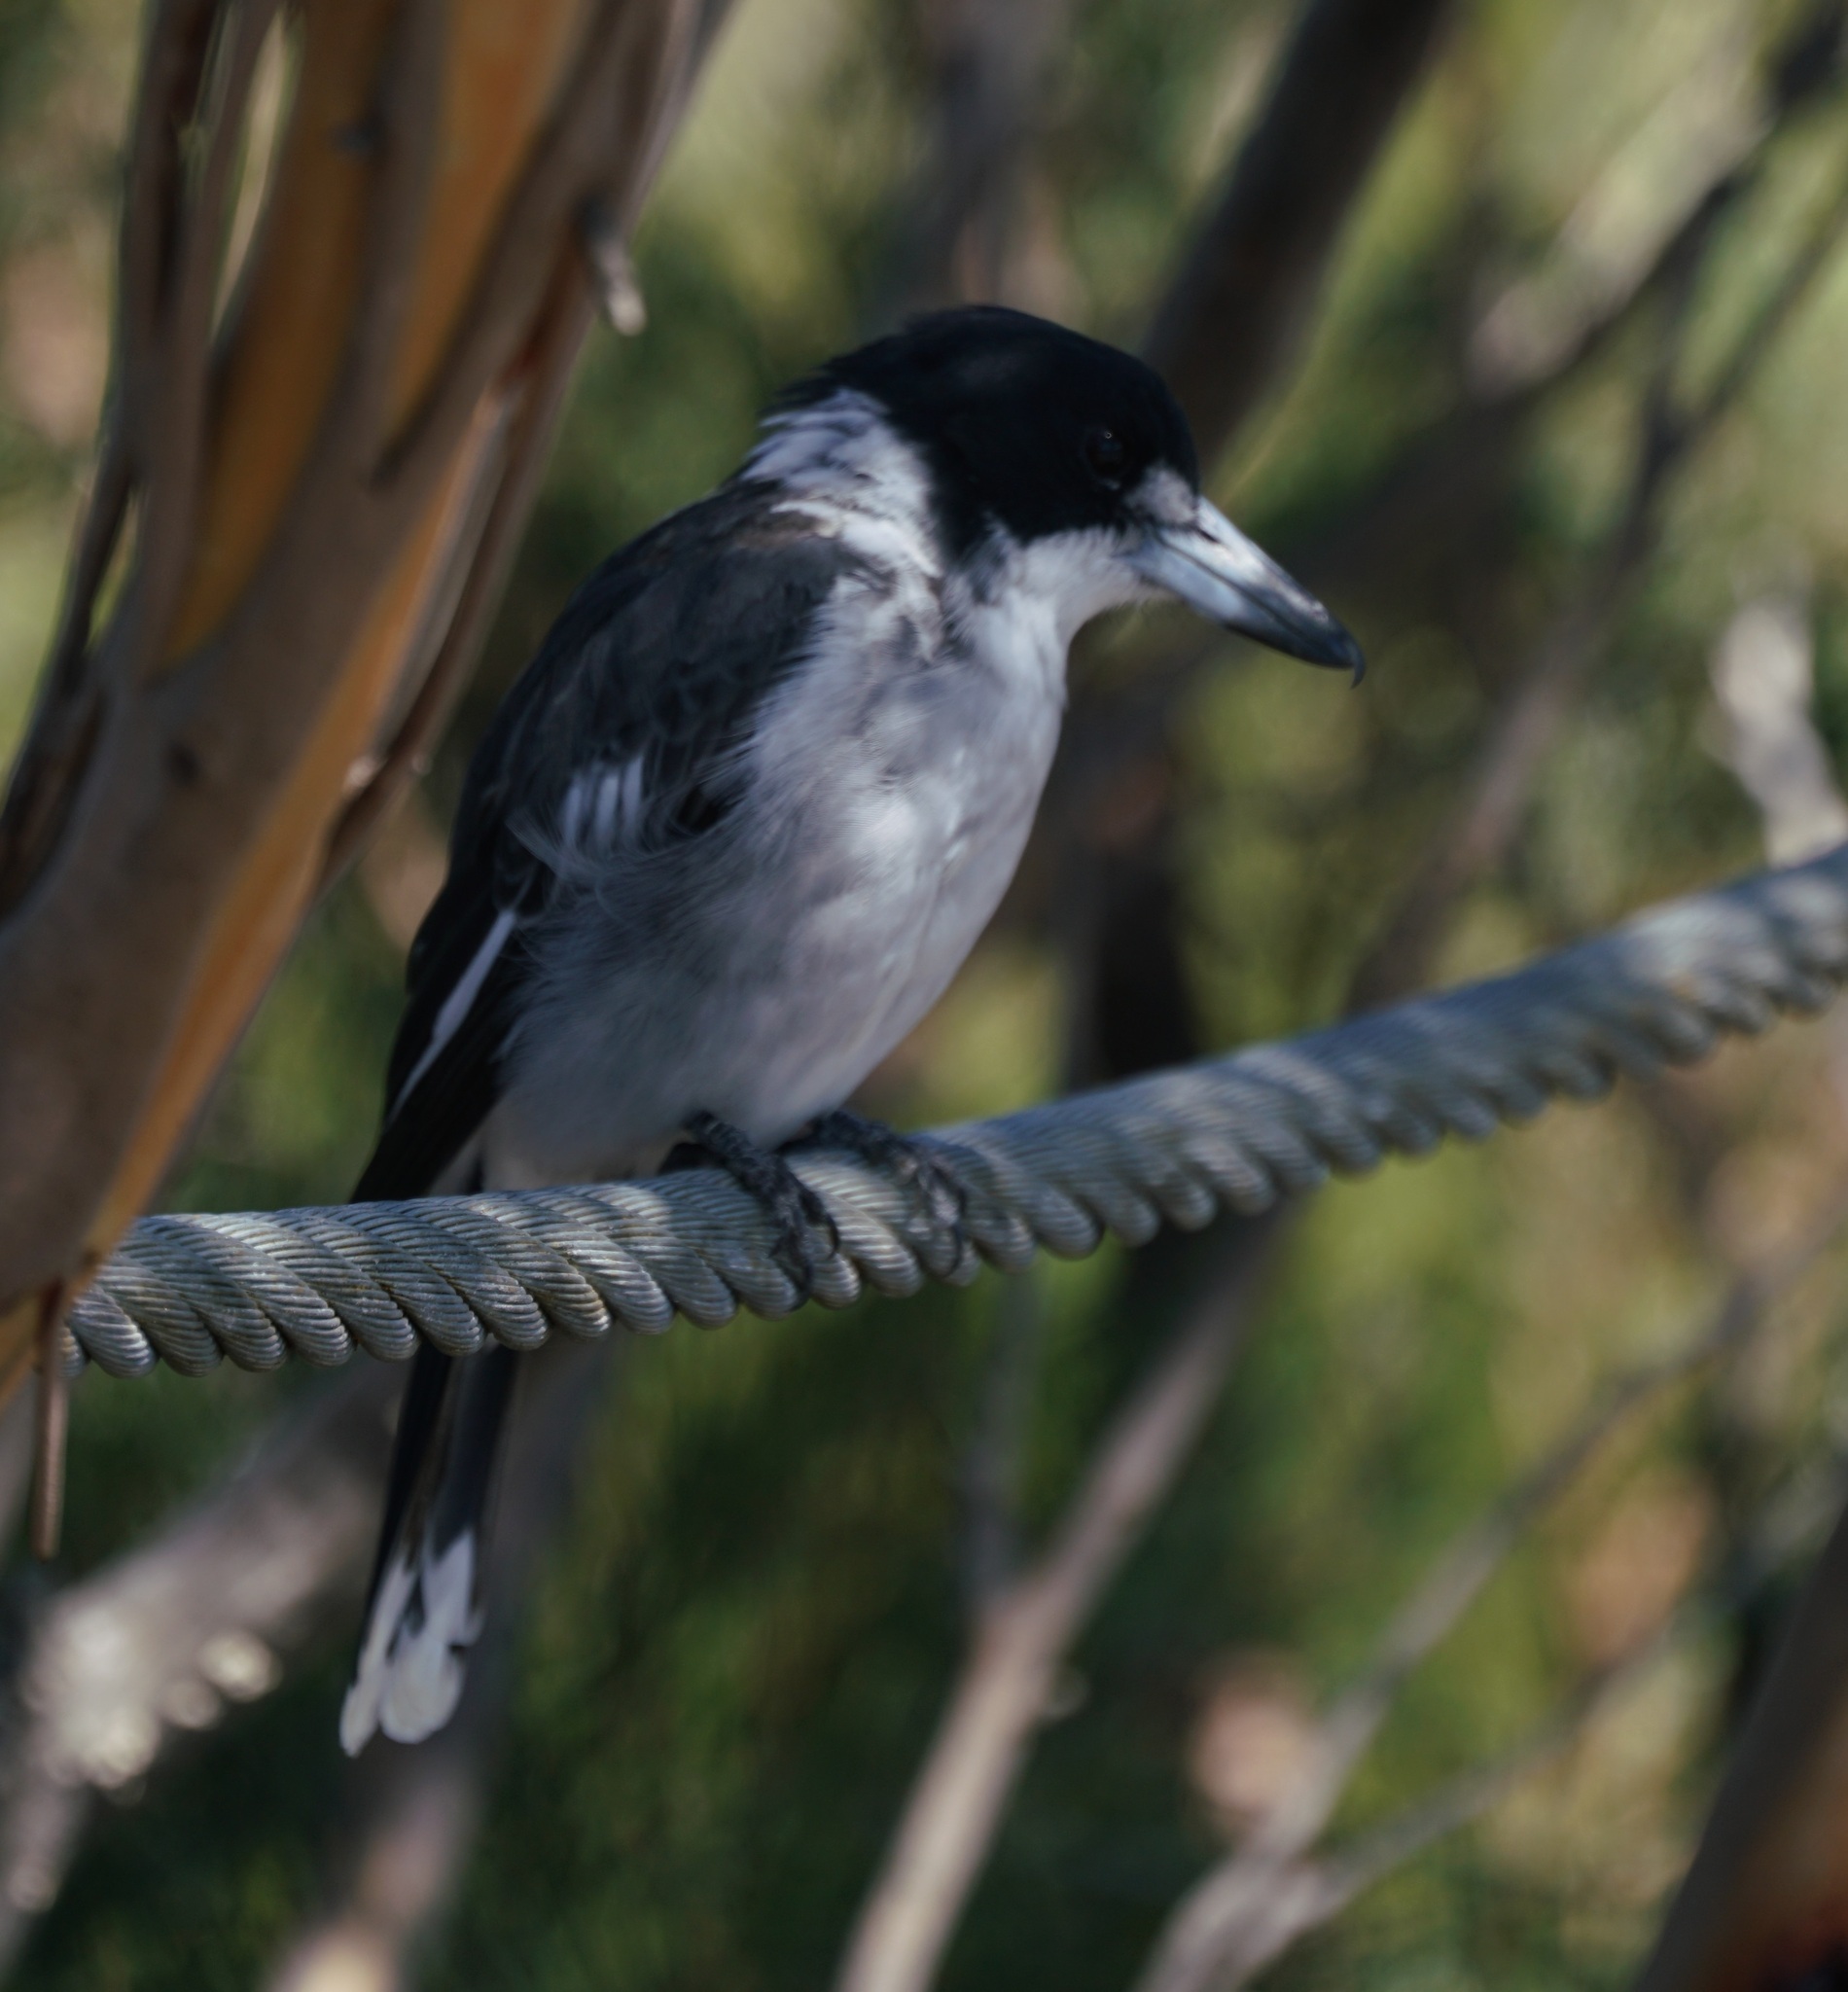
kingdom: Animalia
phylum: Chordata
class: Aves
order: Passeriformes
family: Cracticidae
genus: Cracticus
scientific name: Cracticus torquatus
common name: Grey butcherbird
